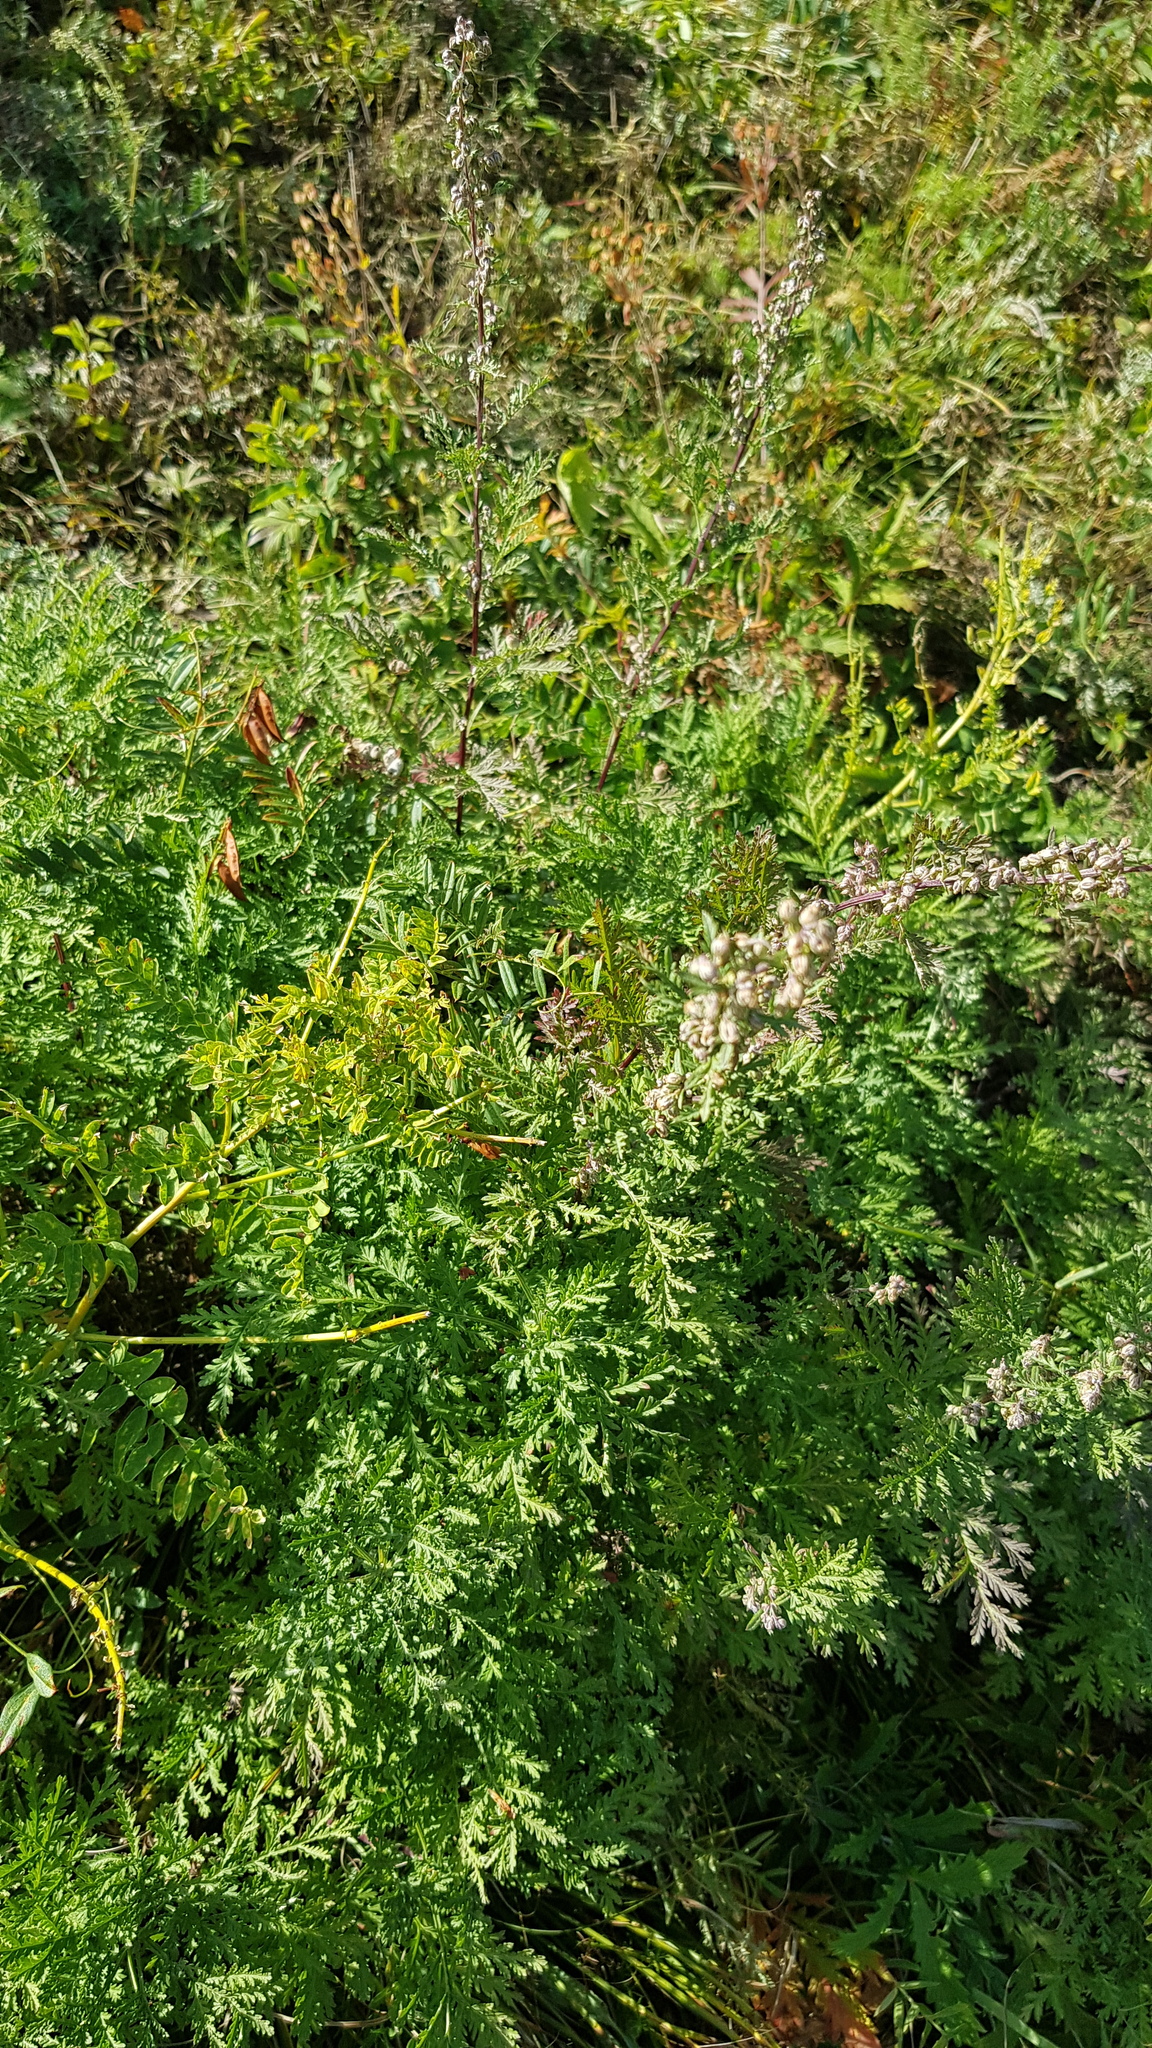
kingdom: Plantae
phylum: Tracheophyta
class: Magnoliopsida
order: Asterales
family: Asteraceae
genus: Artemisia
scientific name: Artemisia tanacetifolia
